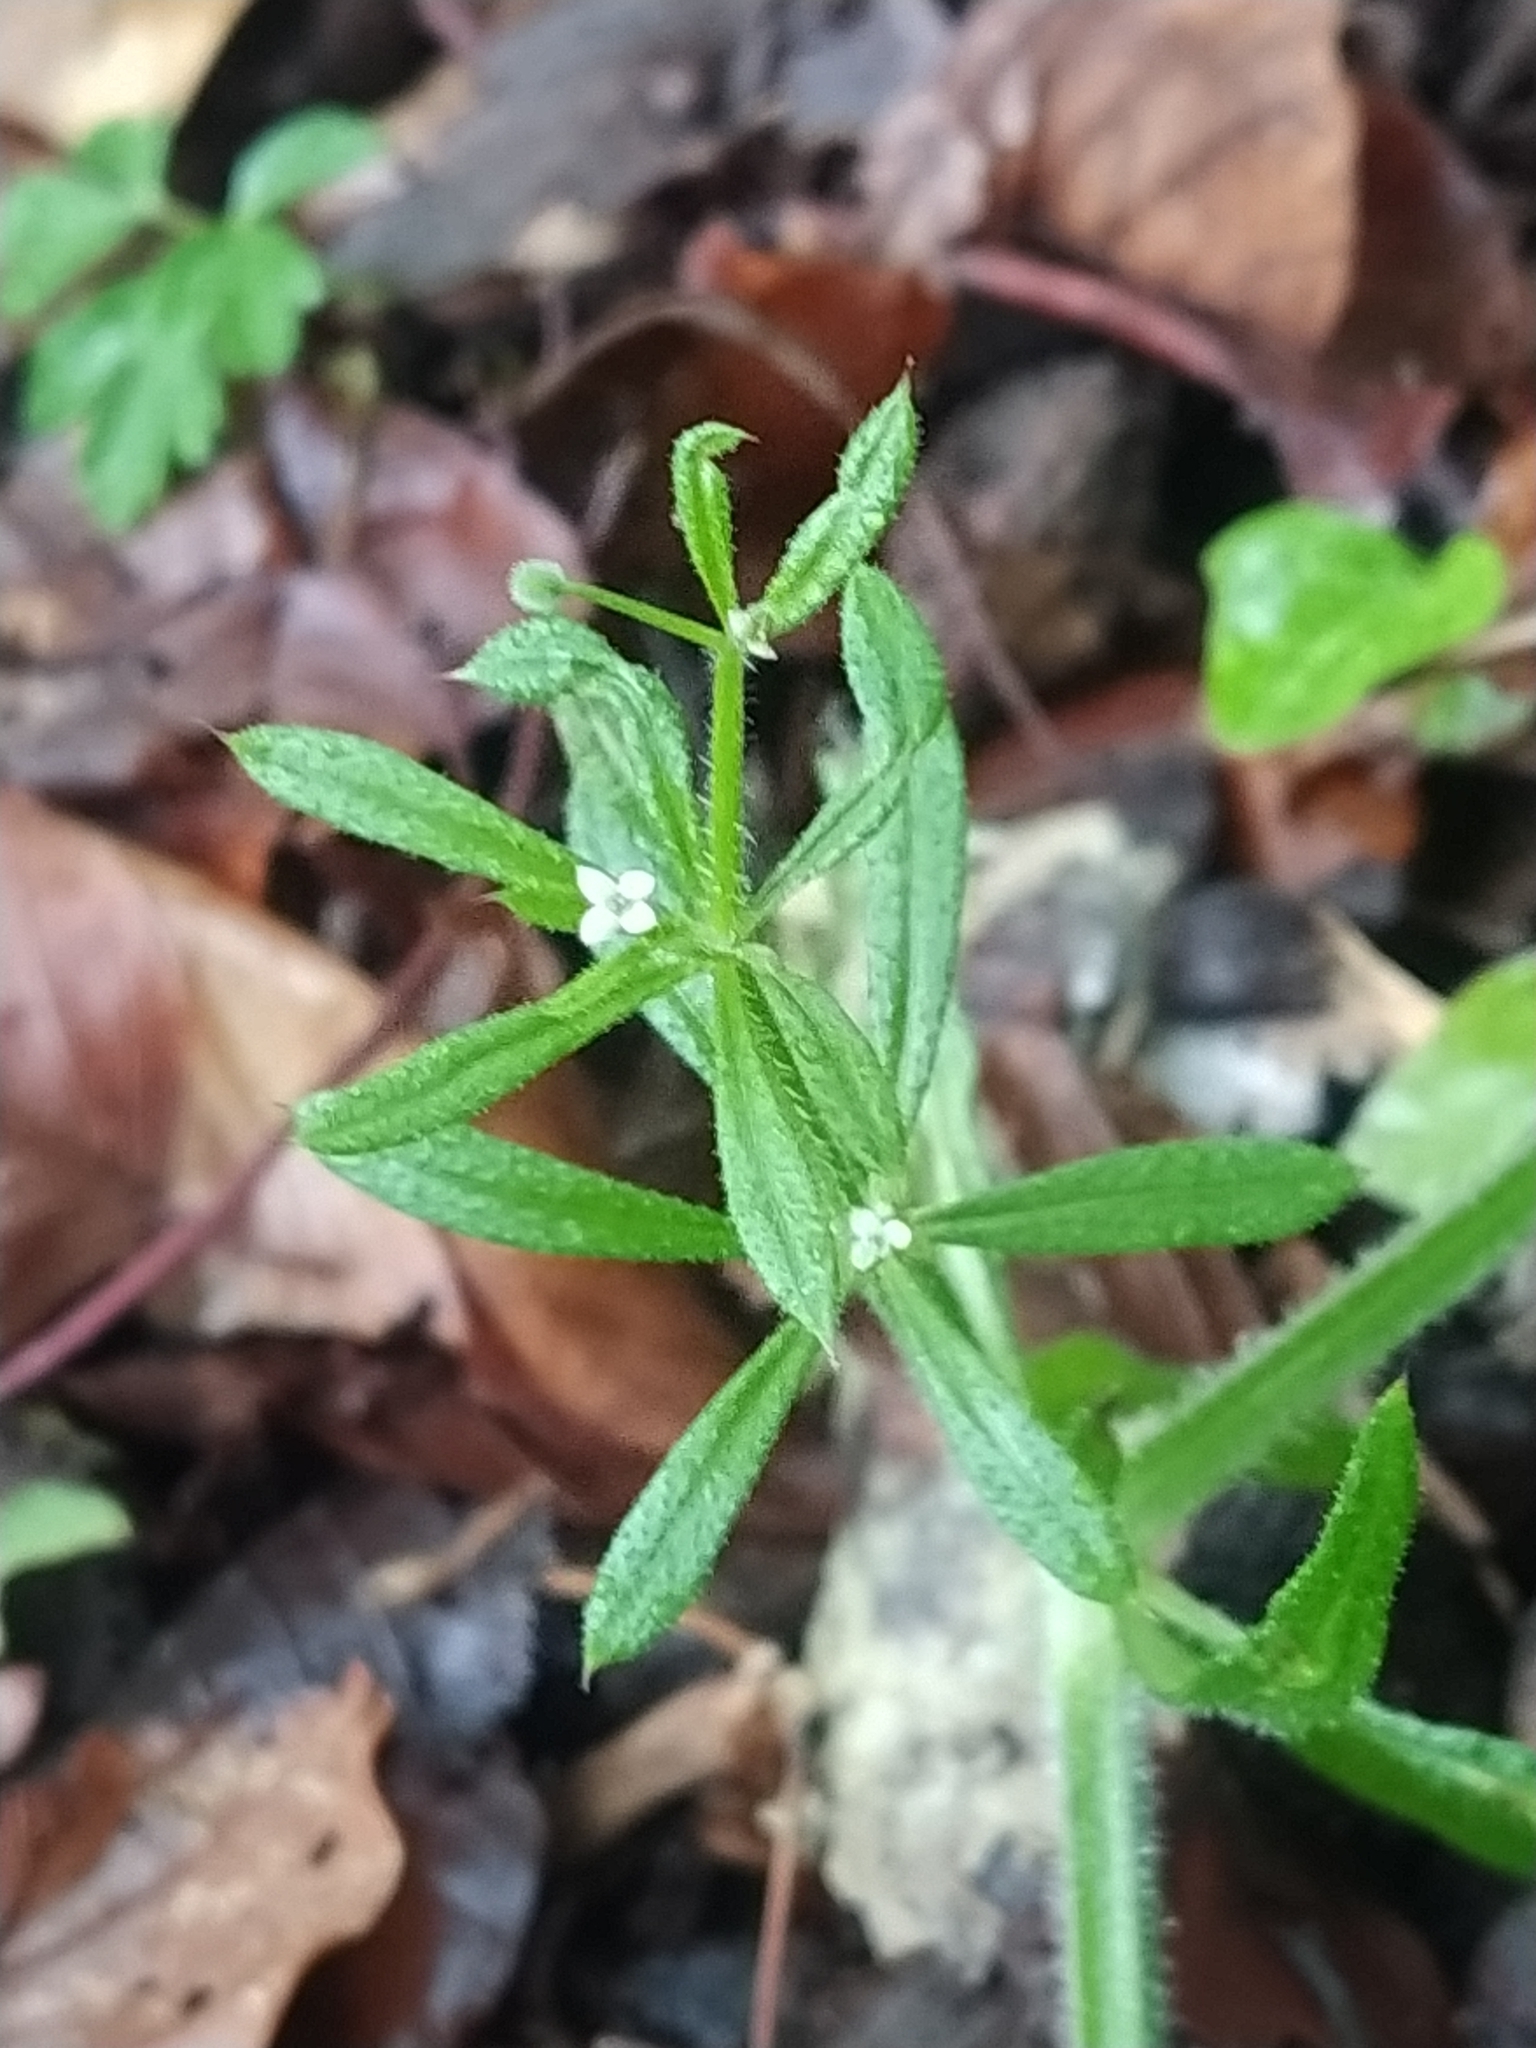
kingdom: Plantae
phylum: Tracheophyta
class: Magnoliopsida
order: Gentianales
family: Rubiaceae
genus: Galium
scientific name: Galium aparine
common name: Cleavers
